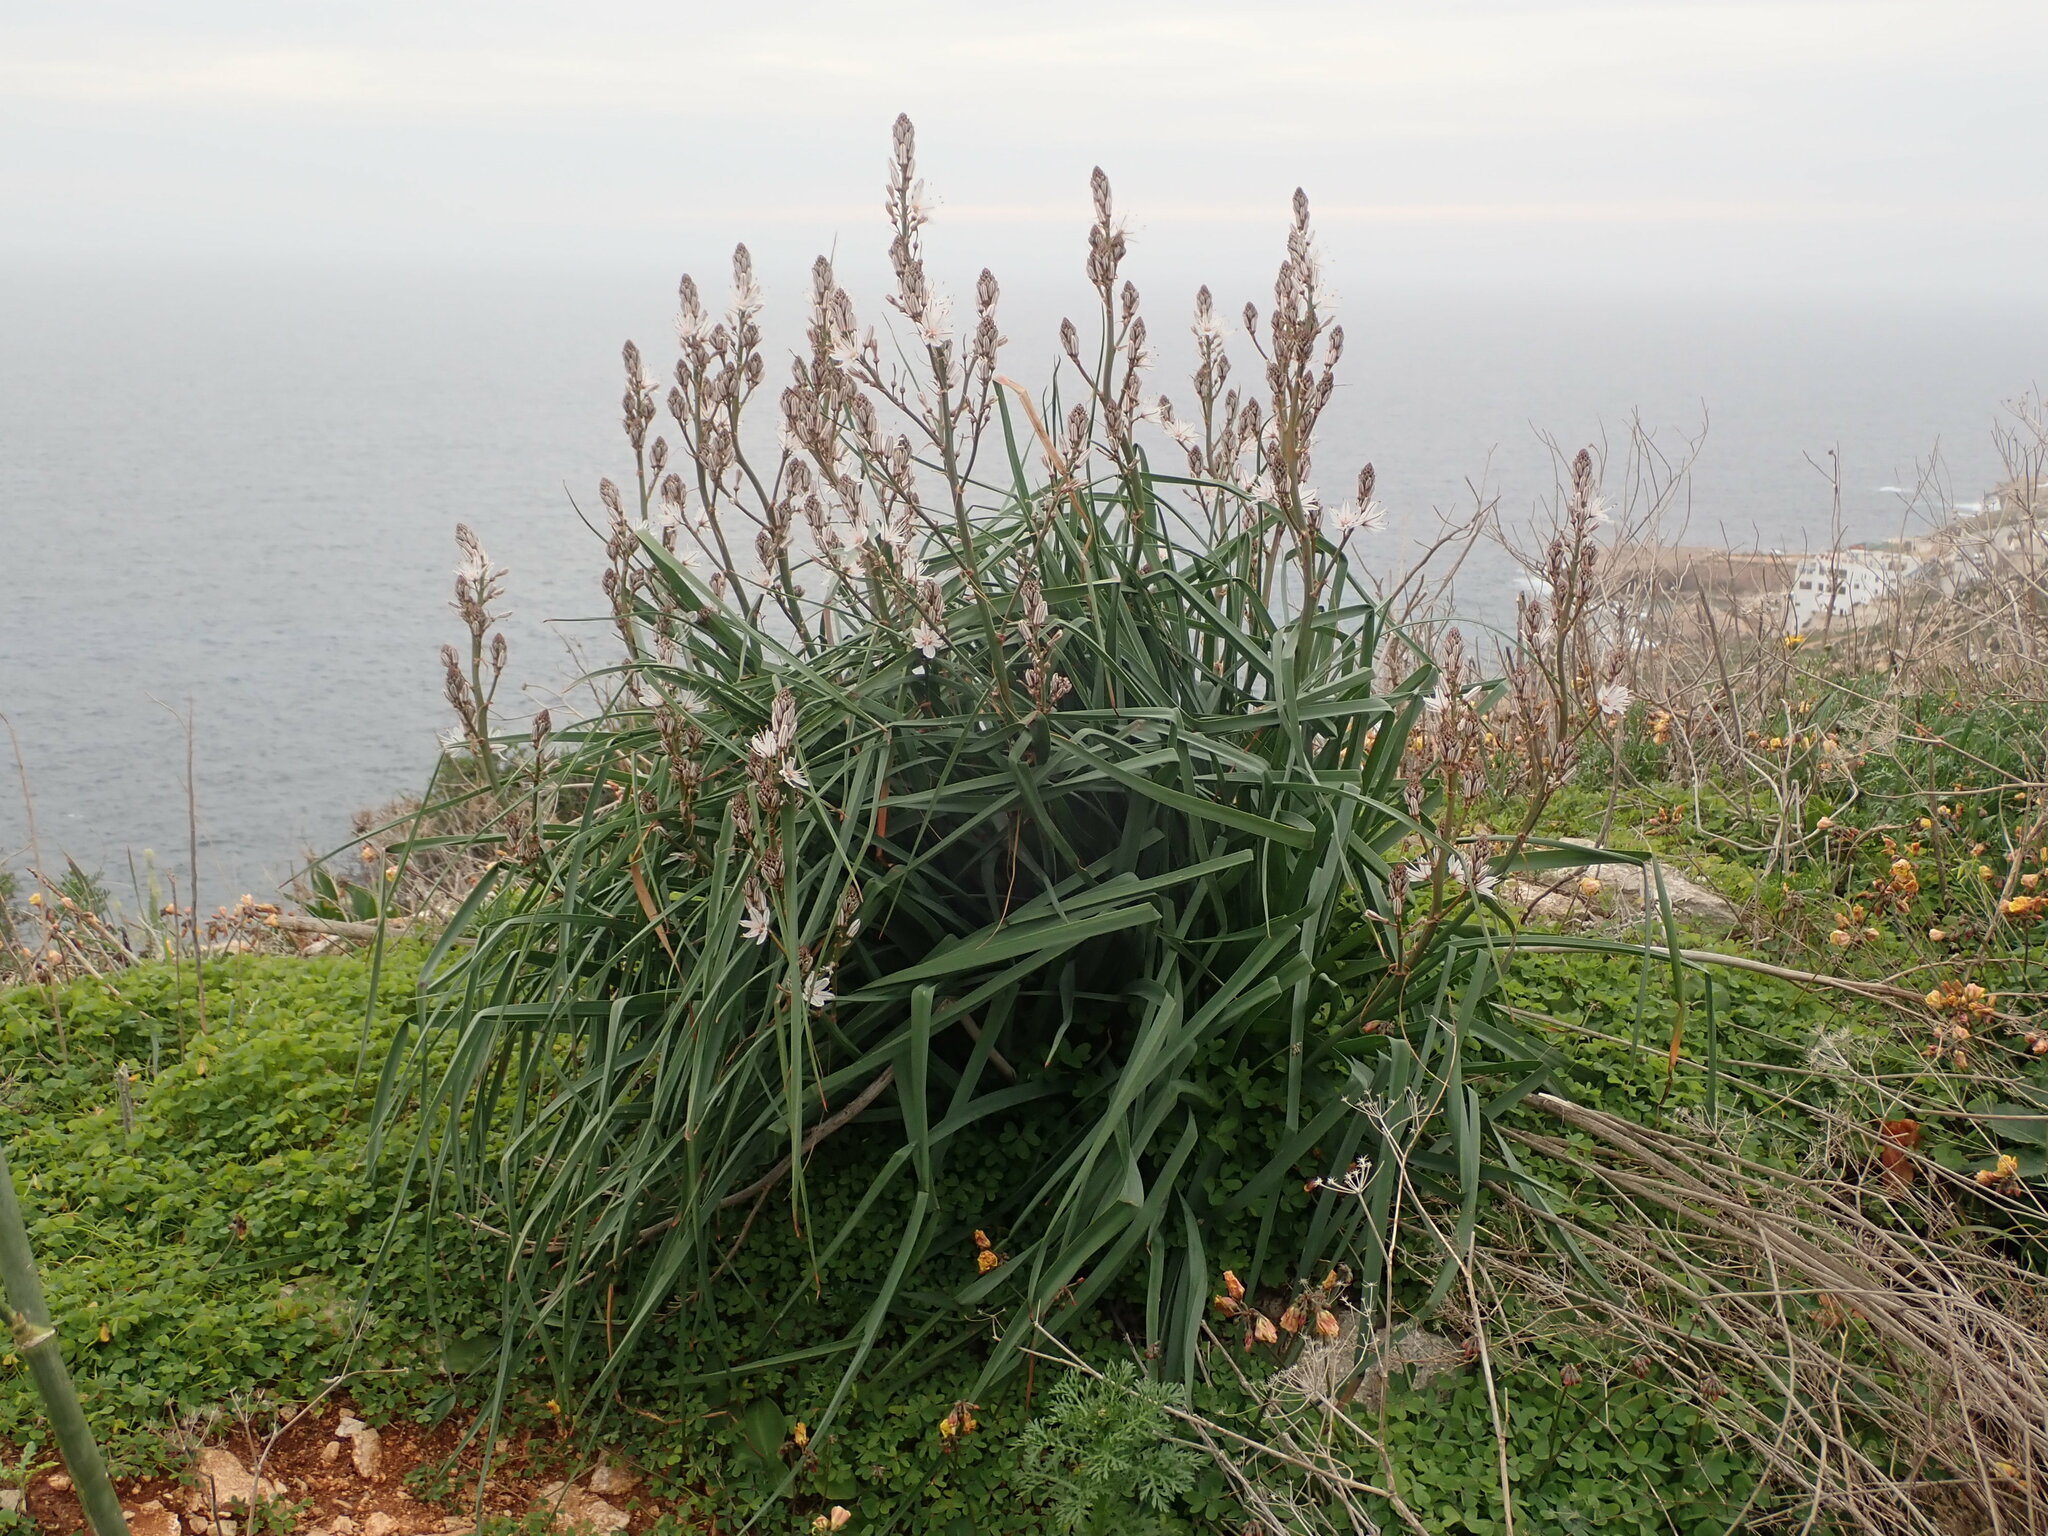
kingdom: Plantae
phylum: Tracheophyta
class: Liliopsida
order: Asparagales
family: Asphodelaceae
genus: Asphodelus
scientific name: Asphodelus ramosus
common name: Silverrod
